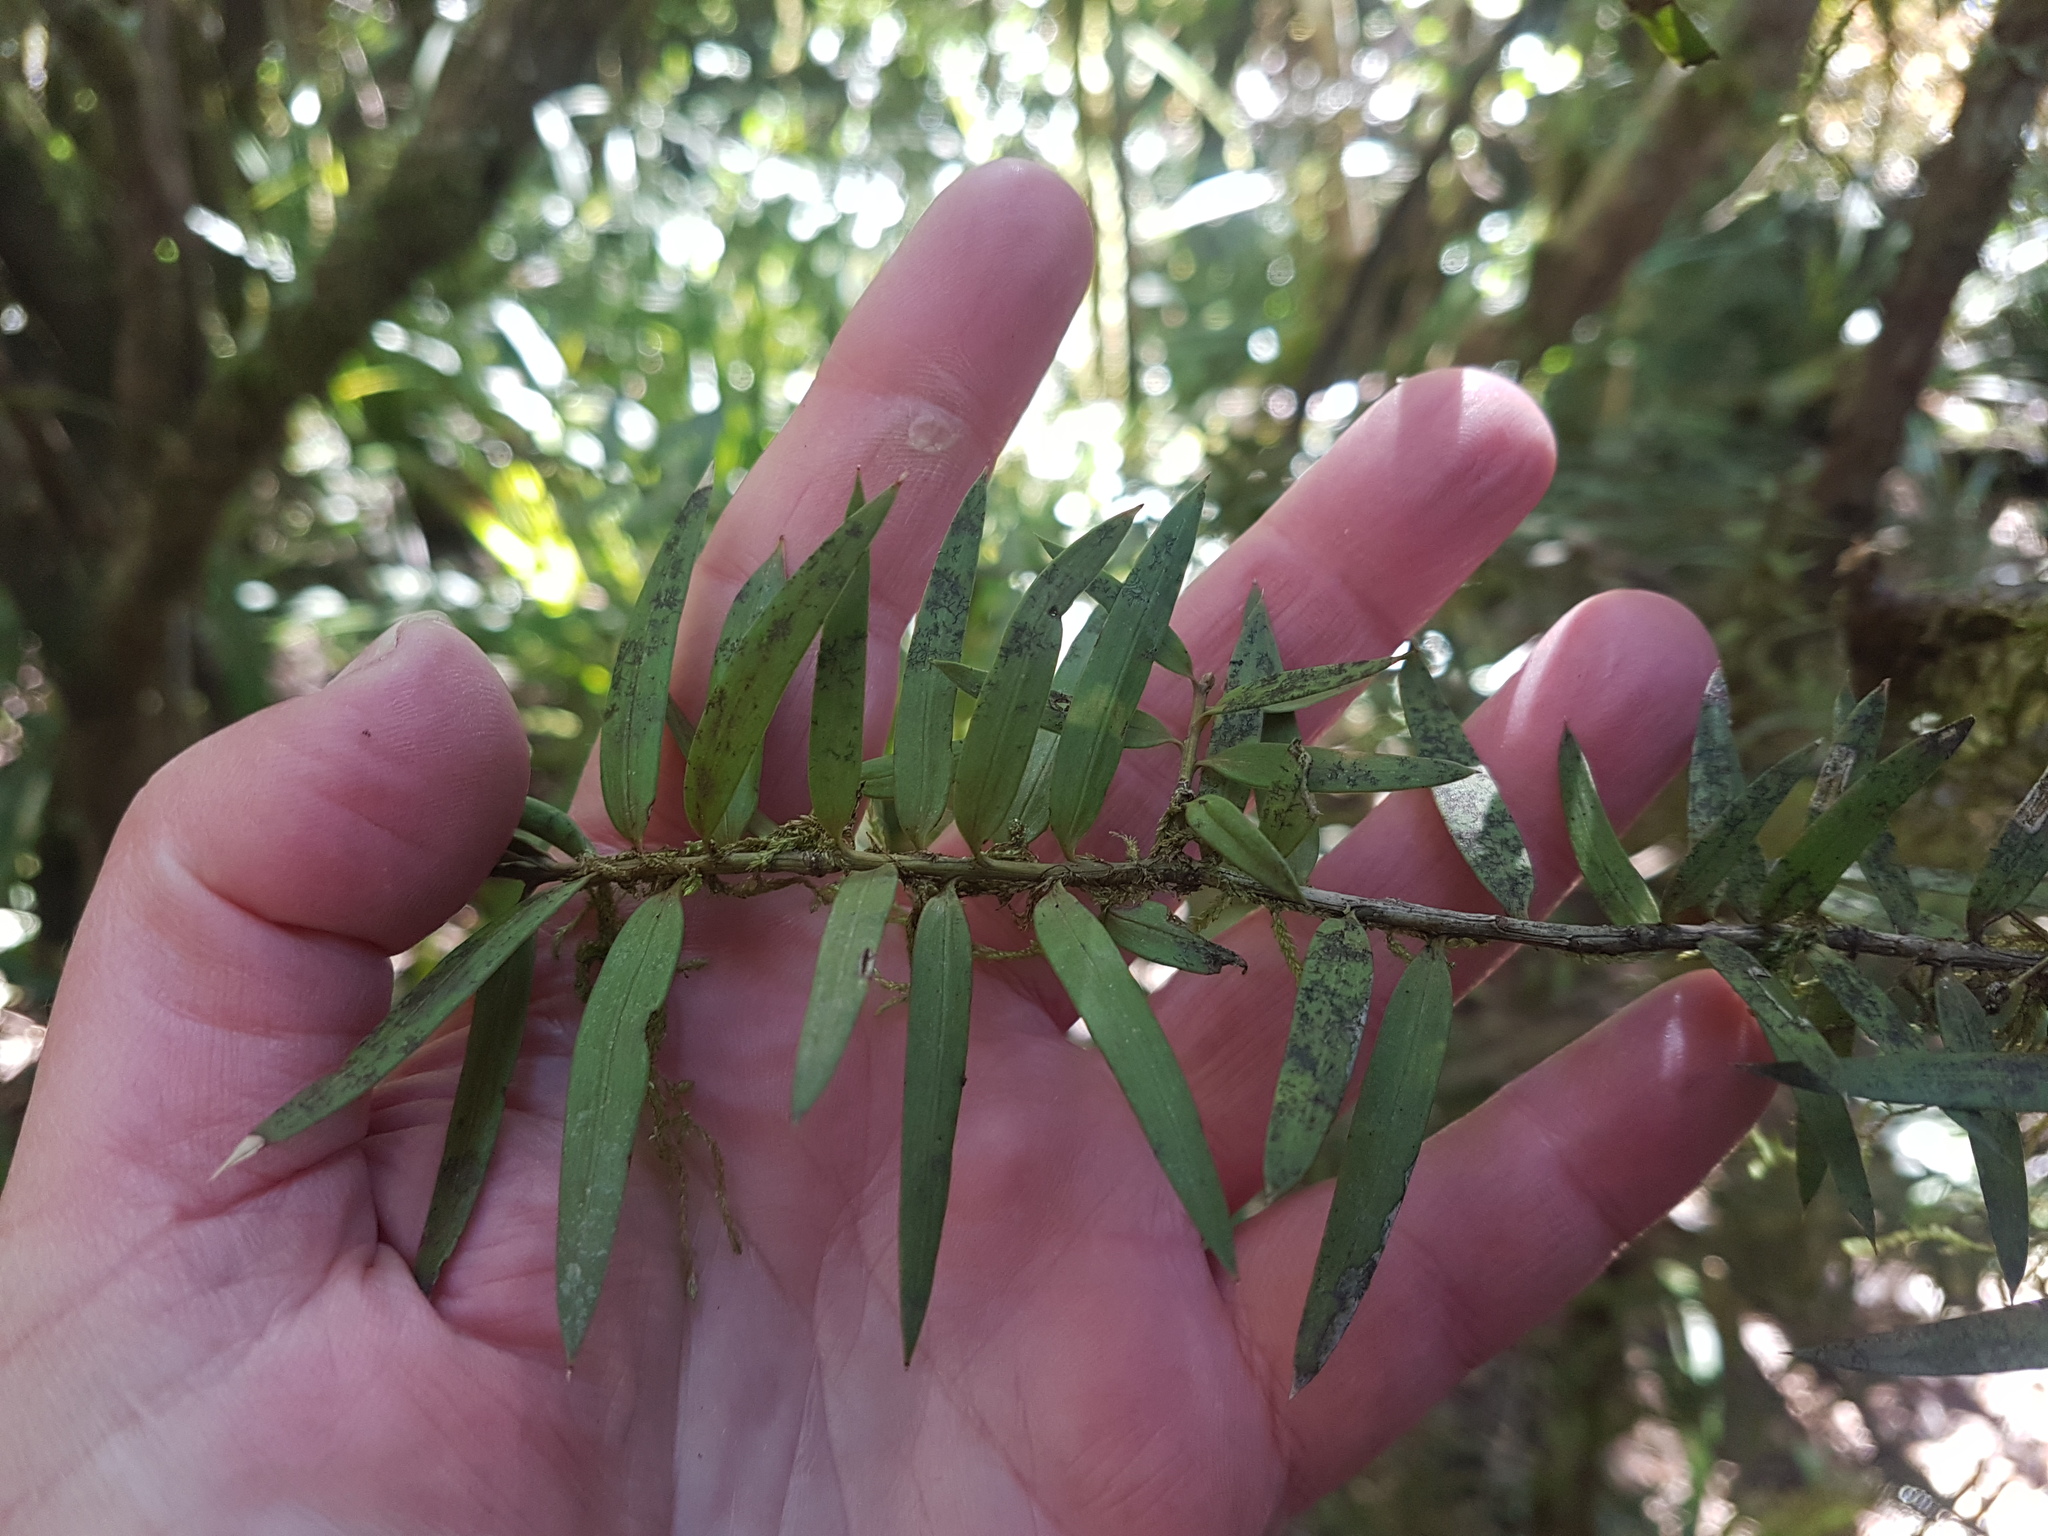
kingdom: Plantae
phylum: Tracheophyta
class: Pinopsida
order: Pinales
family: Podocarpaceae
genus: Podocarpus
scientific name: Podocarpus laetus
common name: Hall's totara
